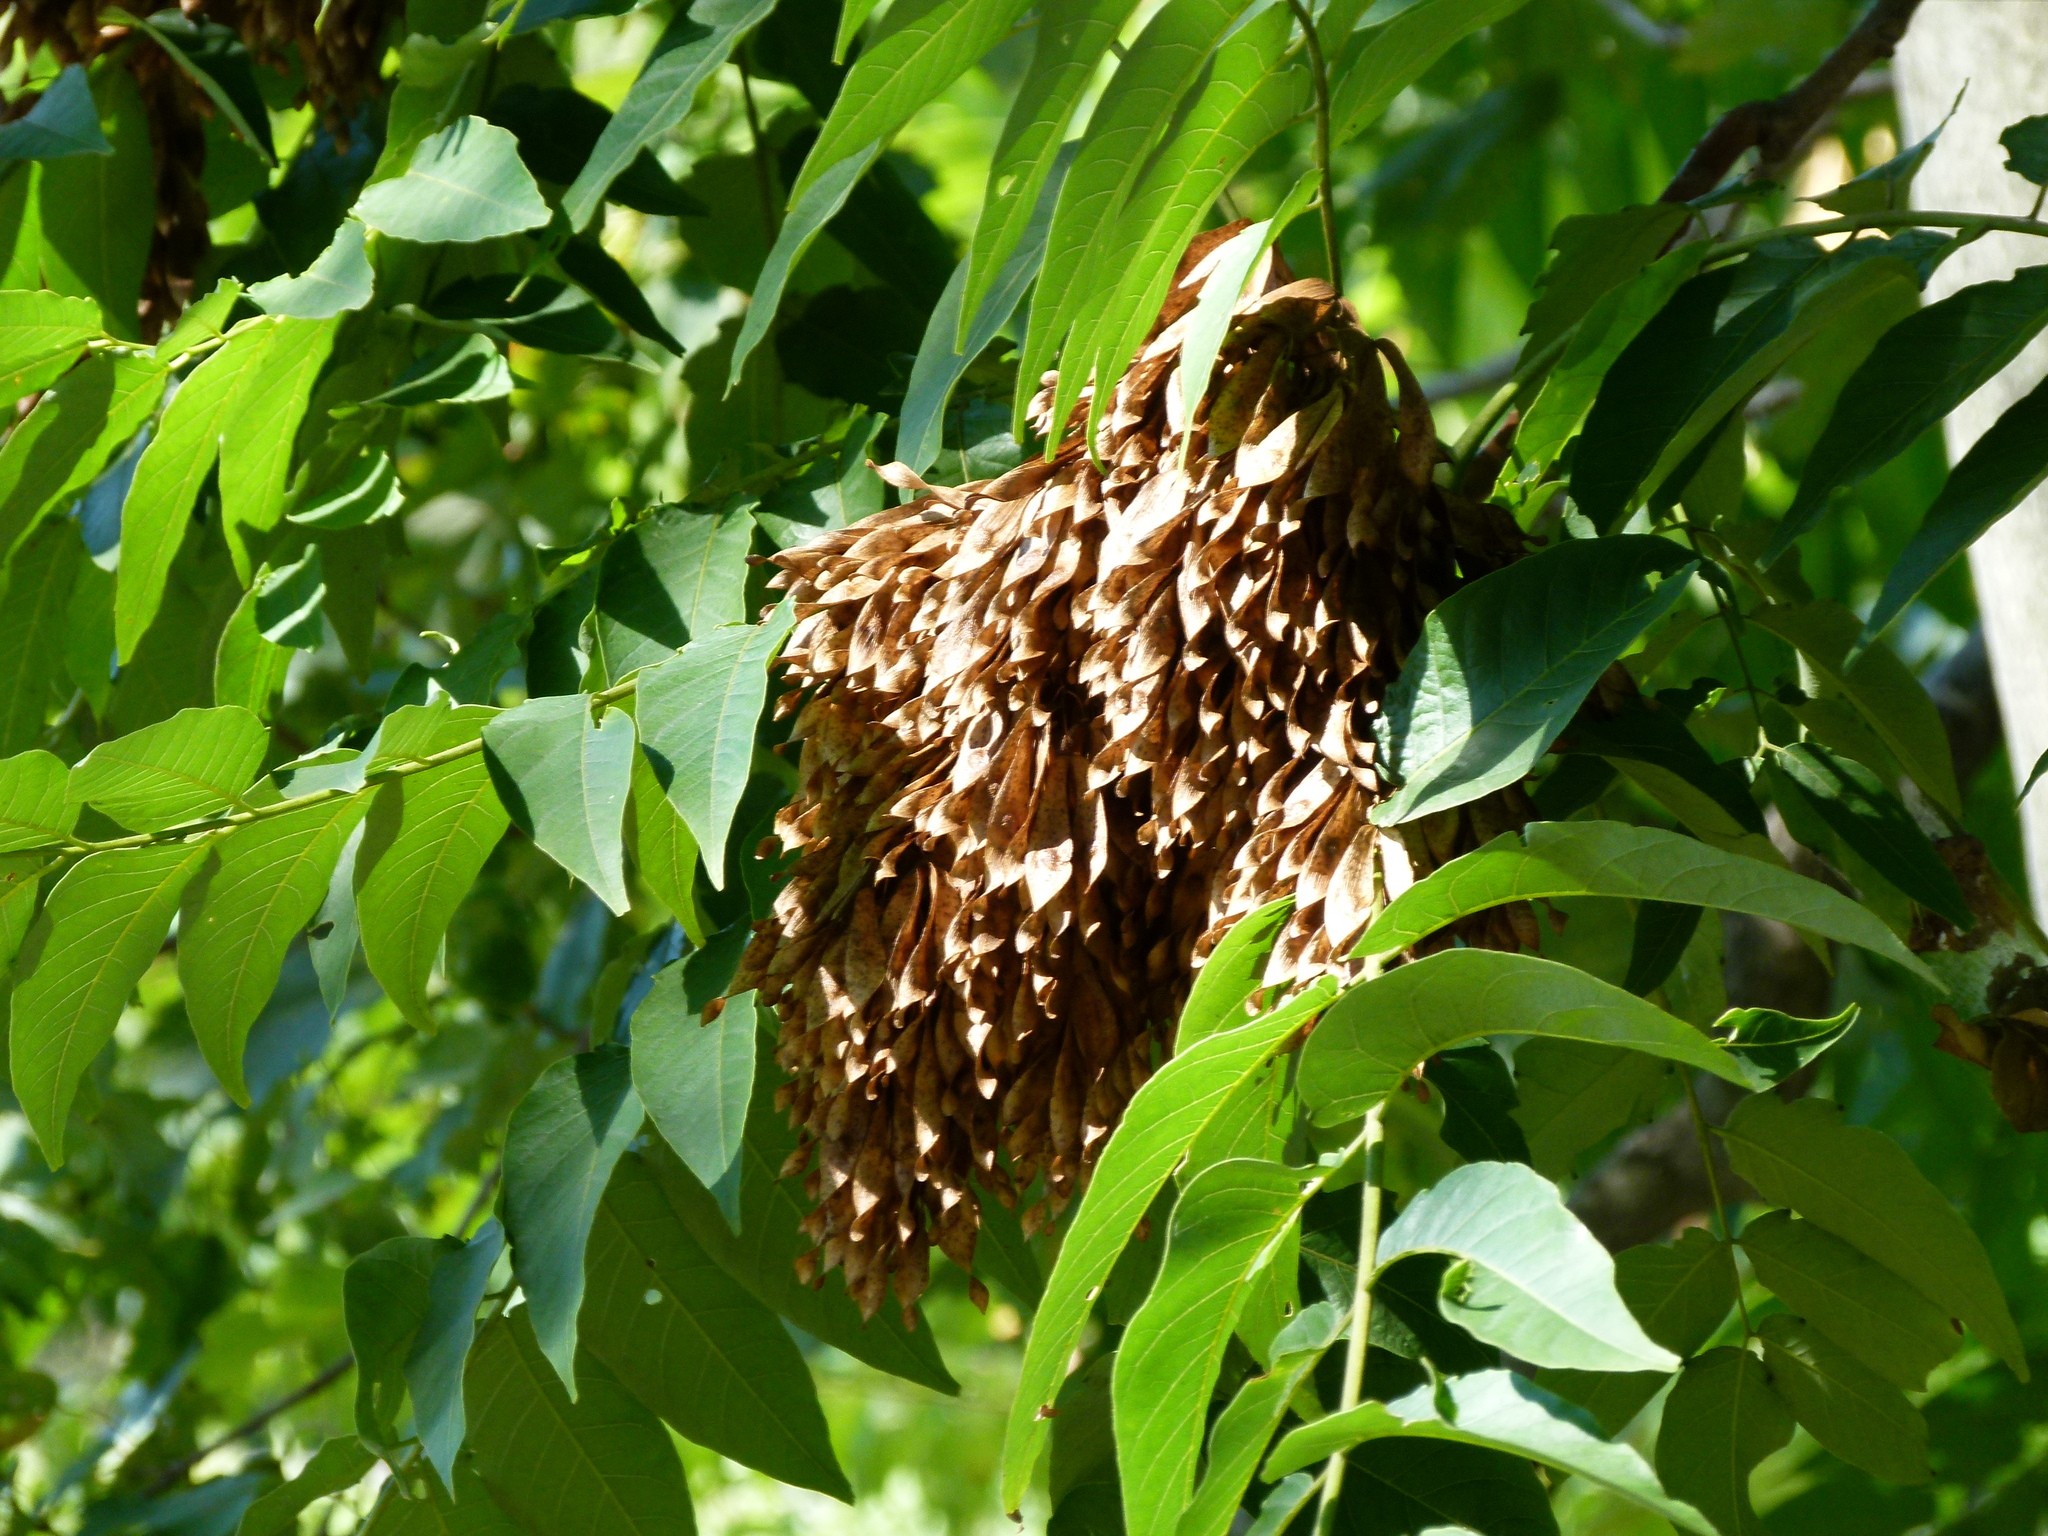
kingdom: Plantae
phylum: Tracheophyta
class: Magnoliopsida
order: Sapindales
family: Simaroubaceae
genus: Ailanthus
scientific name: Ailanthus altissima
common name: Tree-of-heaven
